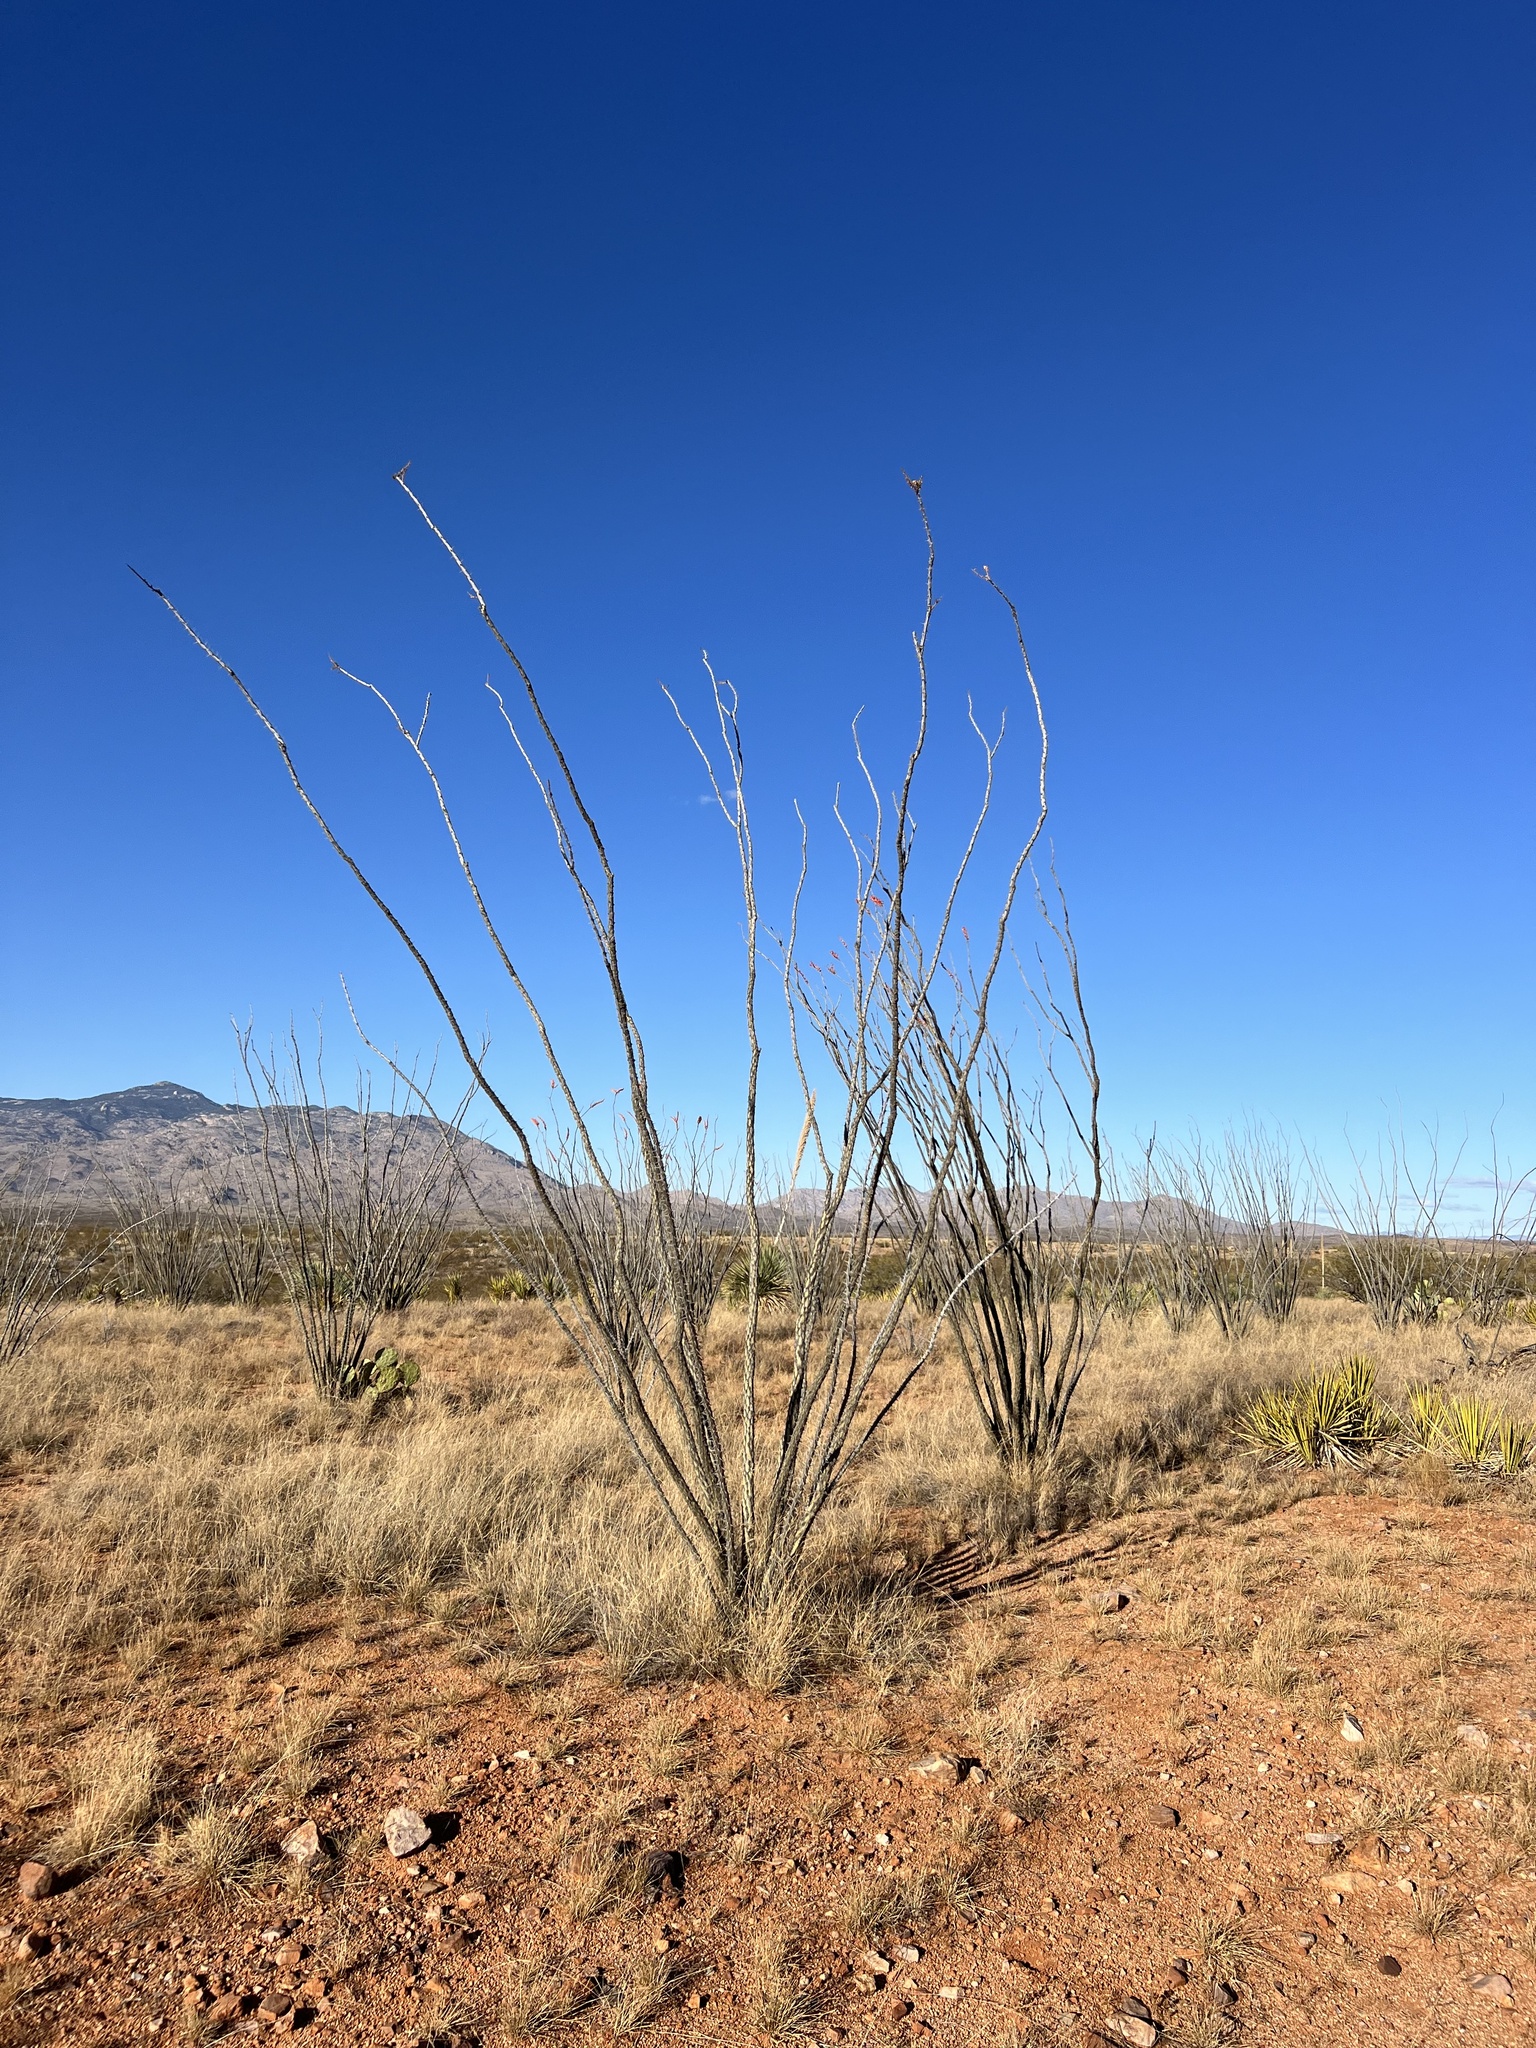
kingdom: Plantae
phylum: Tracheophyta
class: Magnoliopsida
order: Ericales
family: Fouquieriaceae
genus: Fouquieria
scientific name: Fouquieria splendens
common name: Vine-cactus
